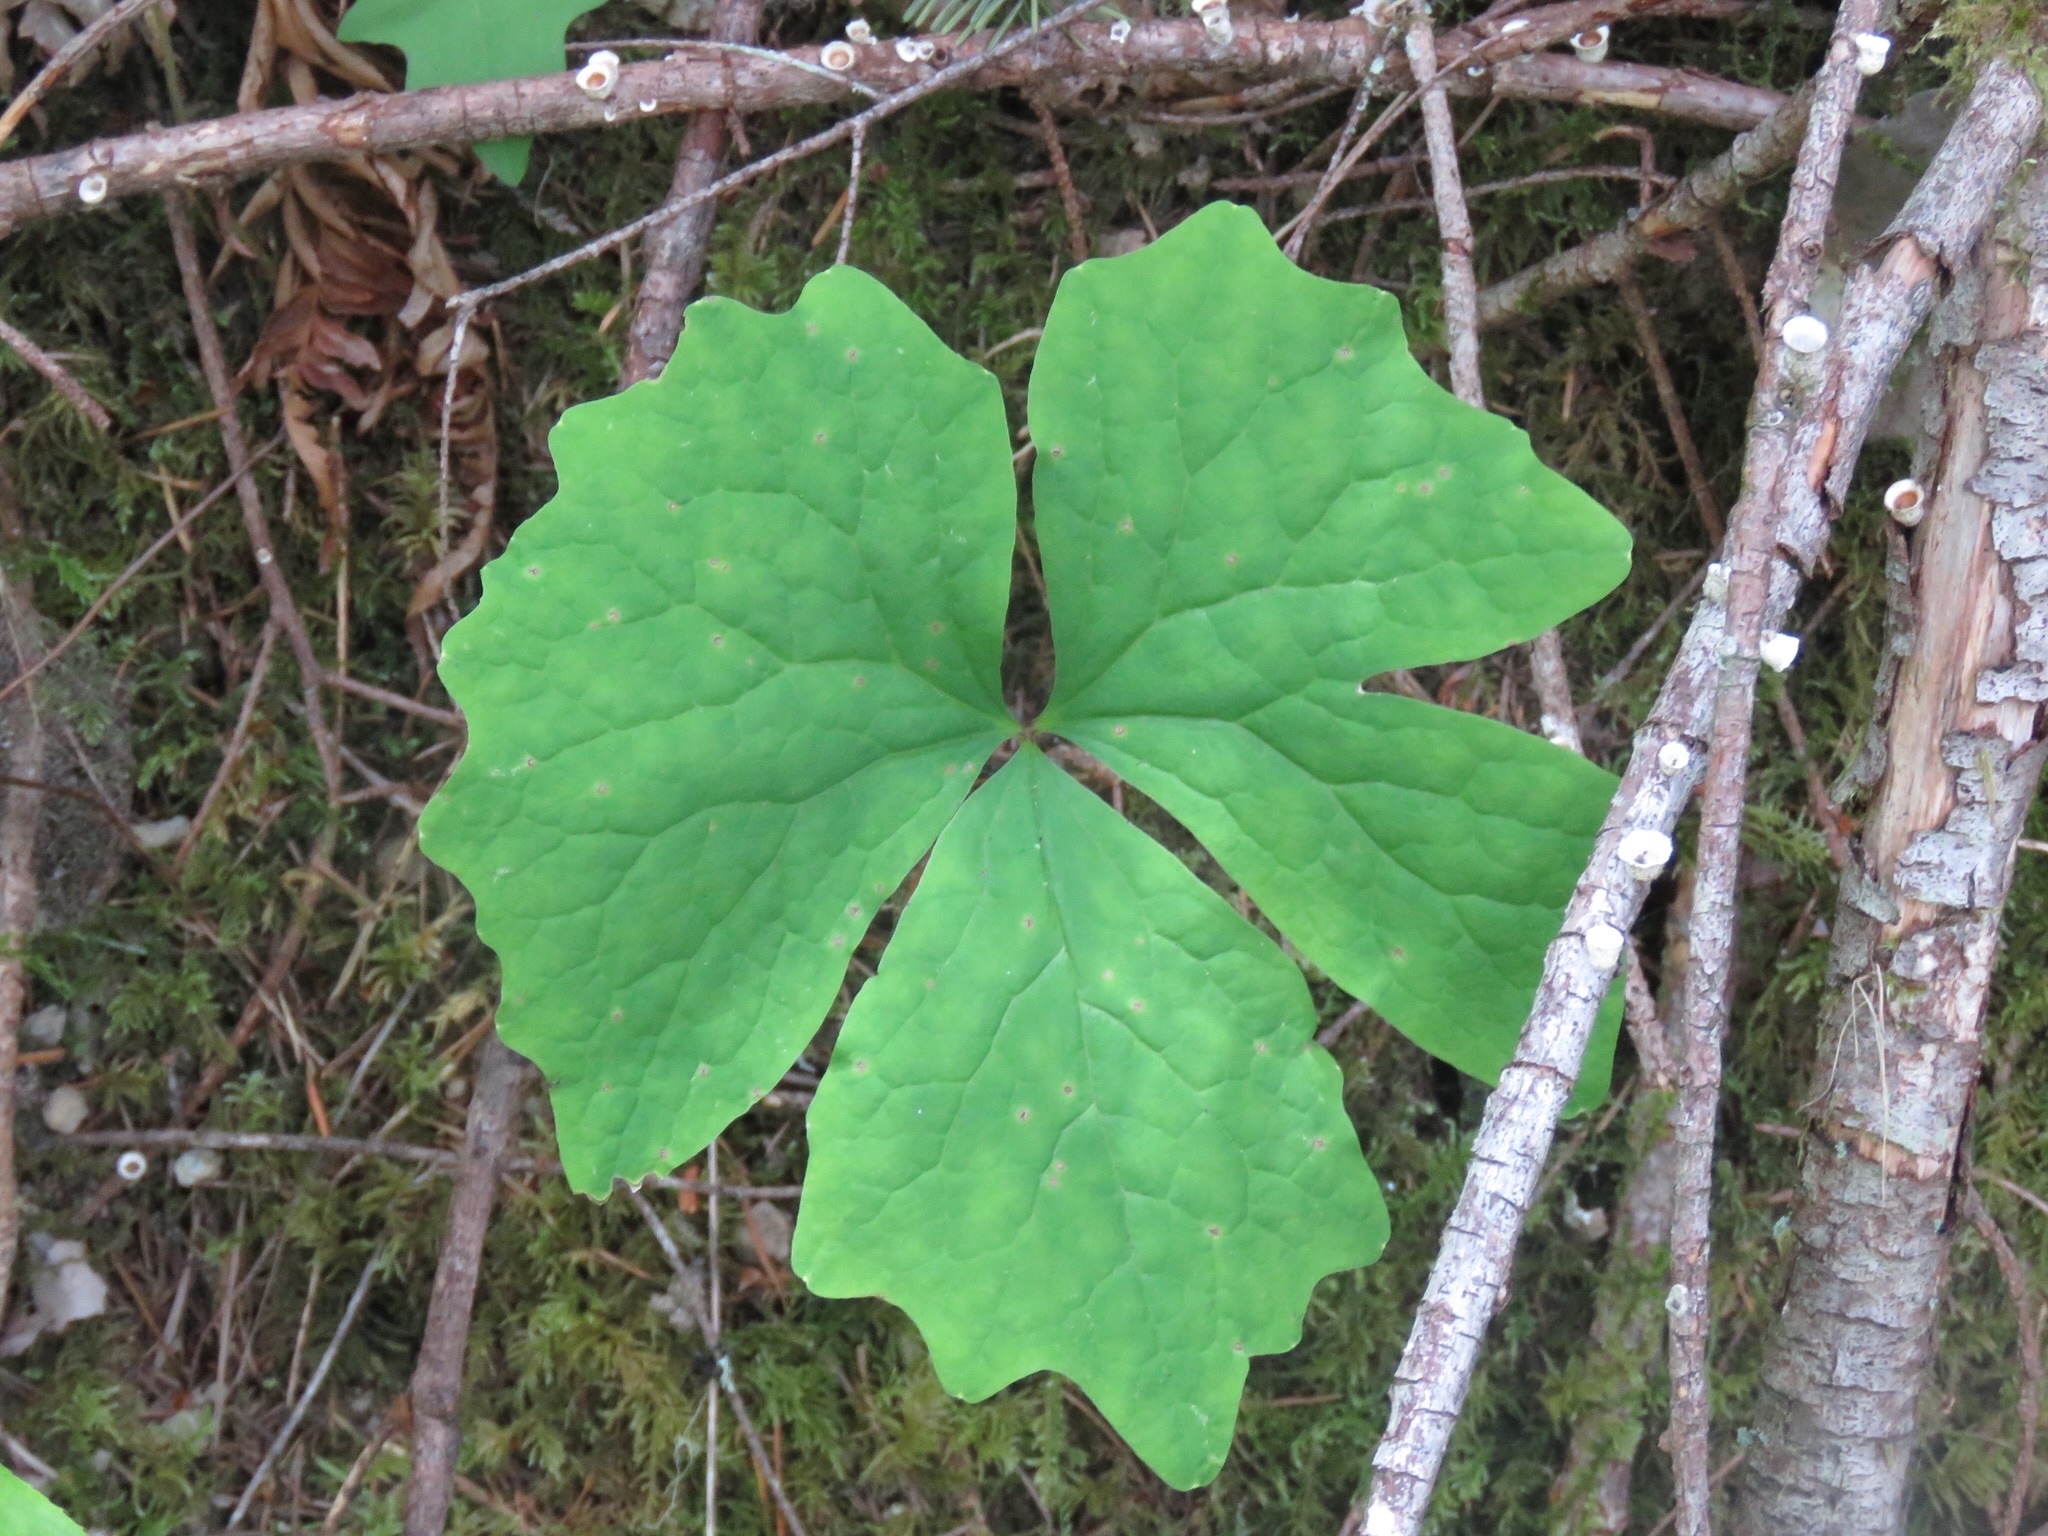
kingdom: Plantae
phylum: Tracheophyta
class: Magnoliopsida
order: Ranunculales
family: Berberidaceae
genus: Achlys
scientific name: Achlys triphylla
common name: Vanilla-leaf
